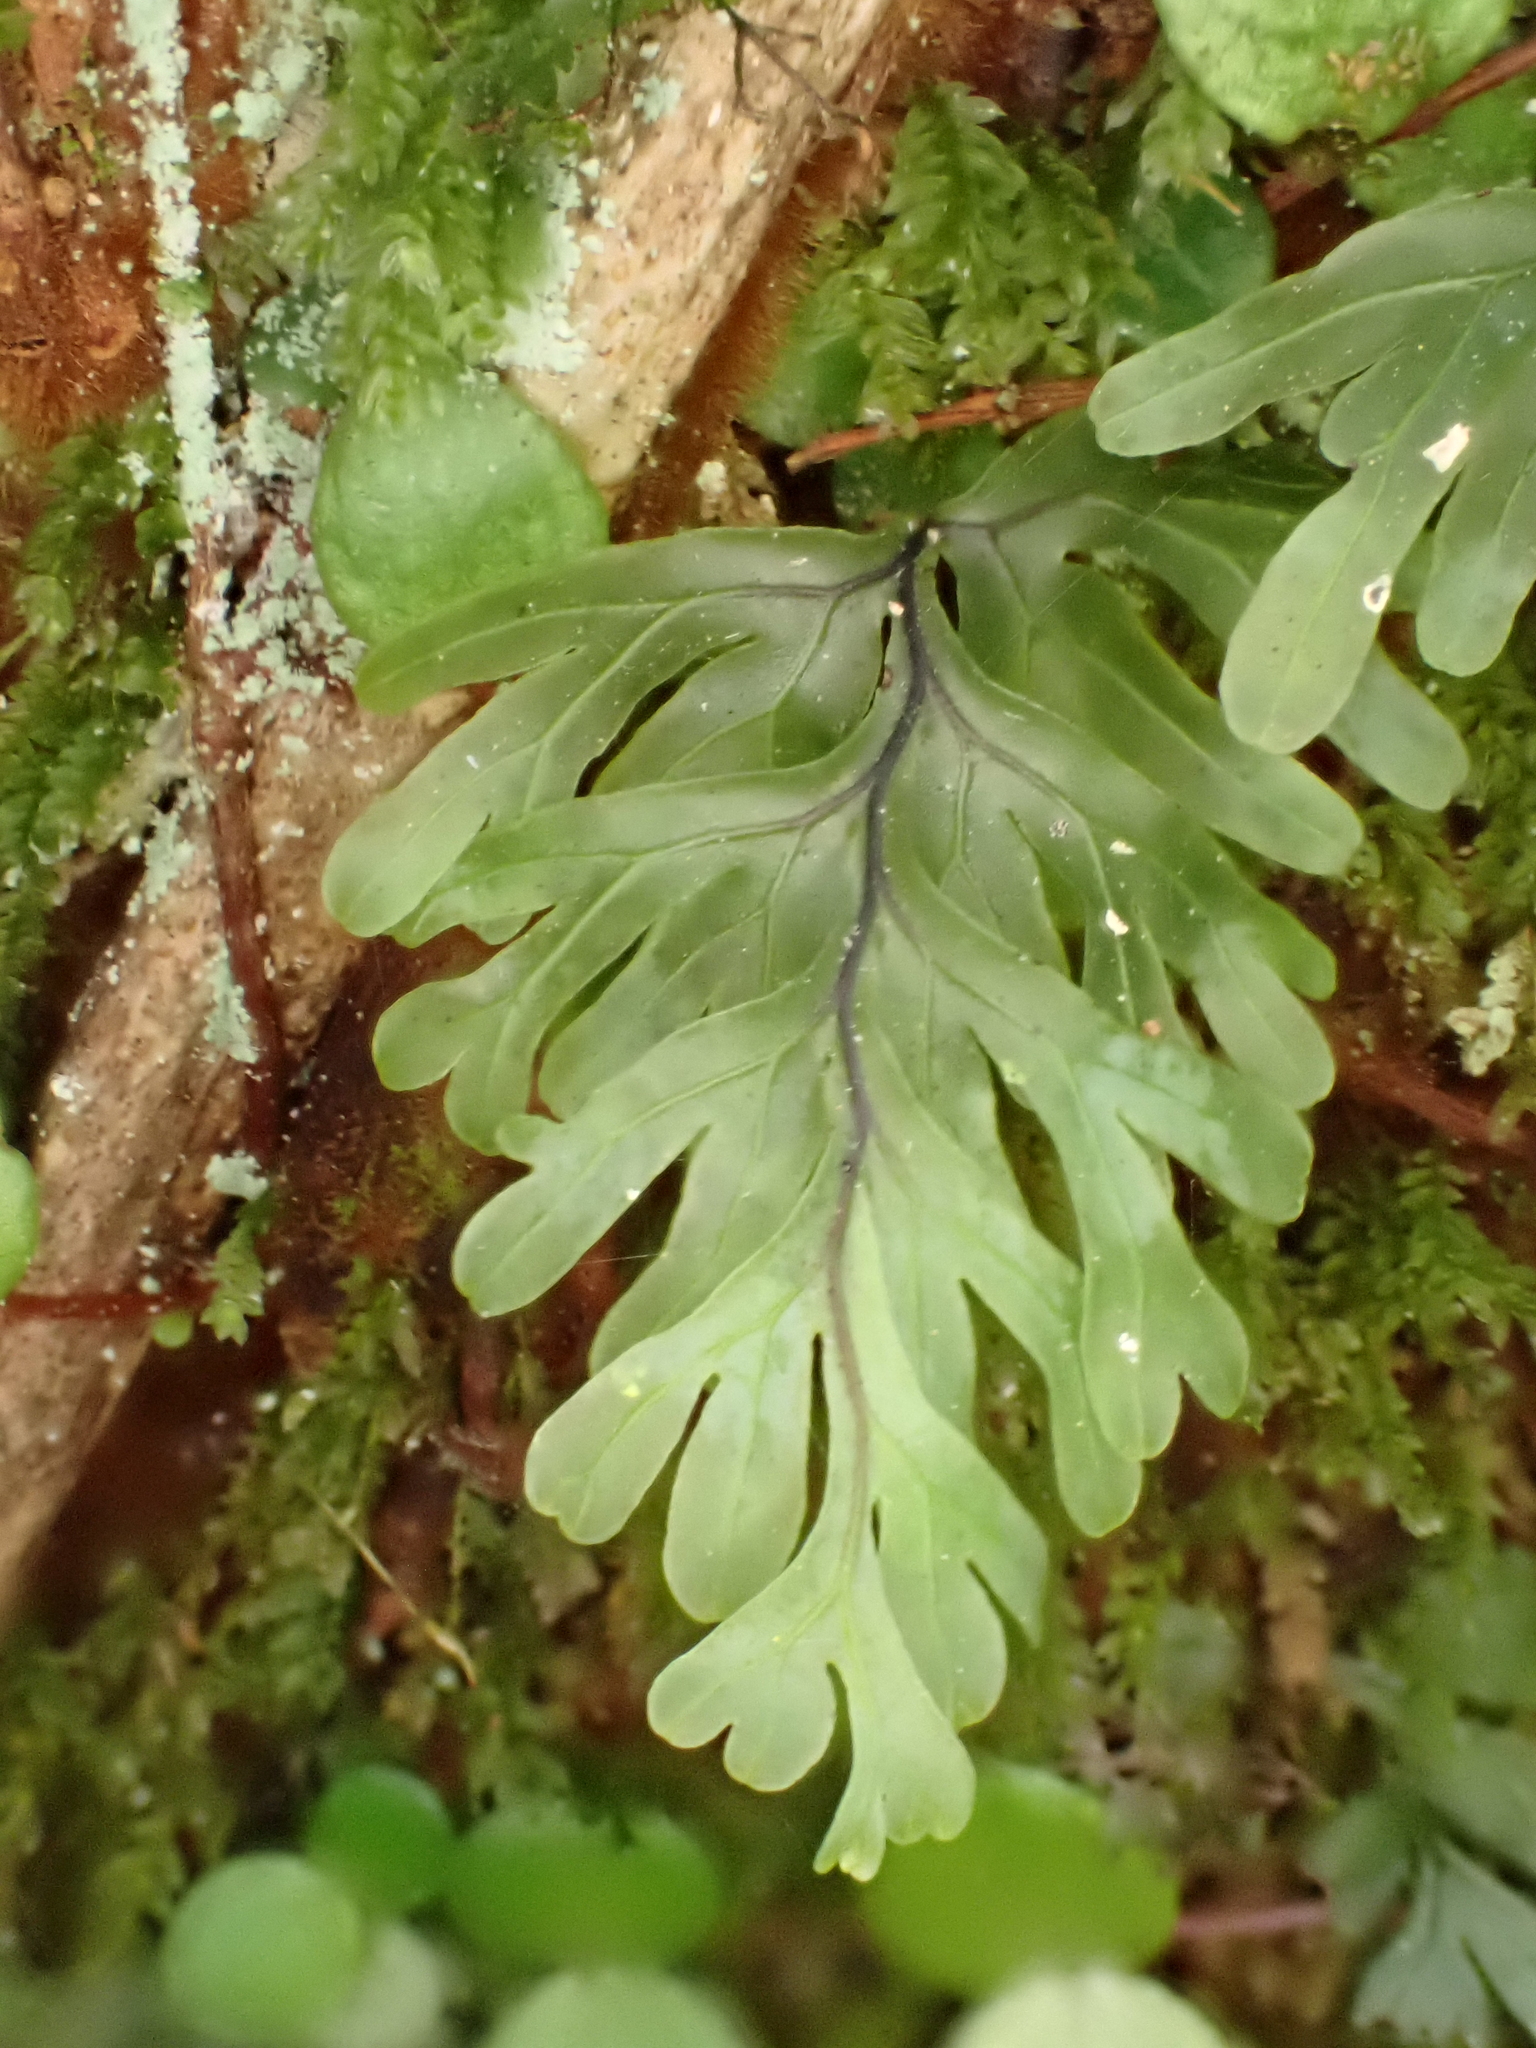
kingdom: Plantae
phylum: Tracheophyta
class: Polypodiopsida
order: Hymenophyllales
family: Hymenophyllaceae
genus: Hymenophyllum
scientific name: Hymenophyllum rarum
